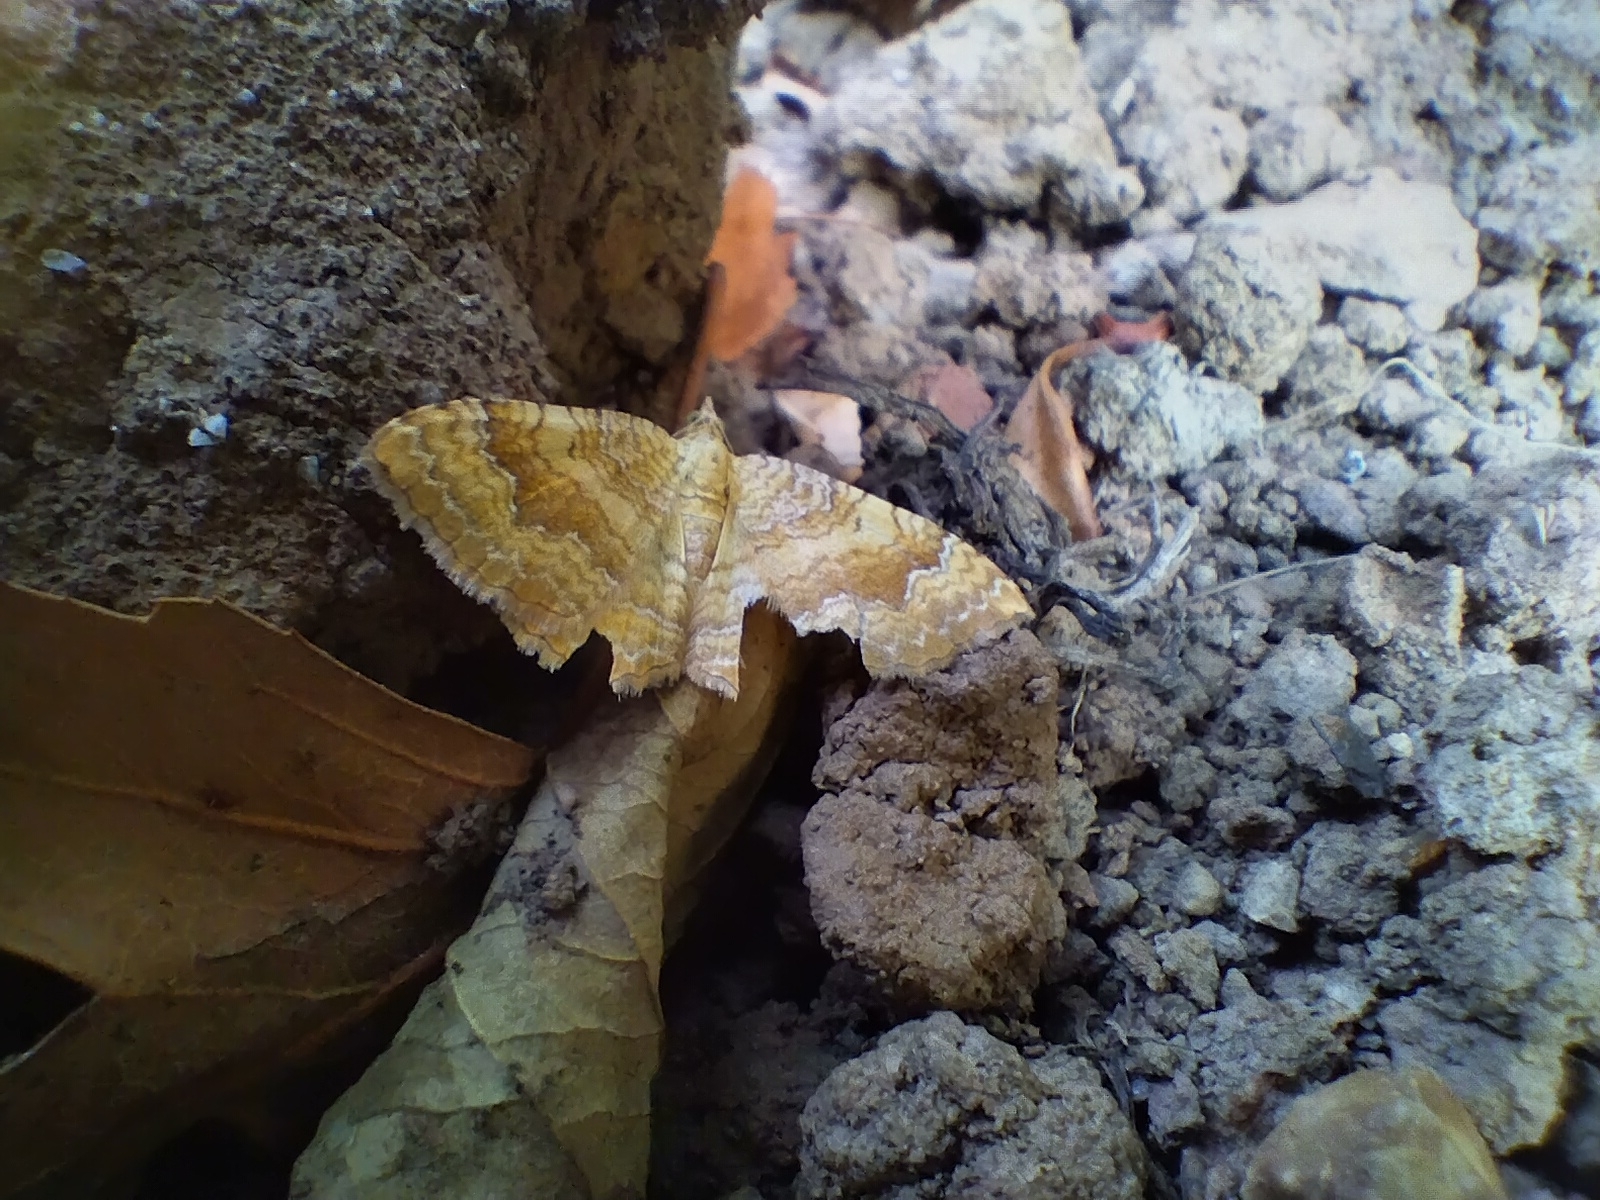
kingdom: Animalia
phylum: Arthropoda
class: Insecta
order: Lepidoptera
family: Geometridae
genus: Camptogramma
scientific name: Camptogramma bilineata
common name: Yellow shell
